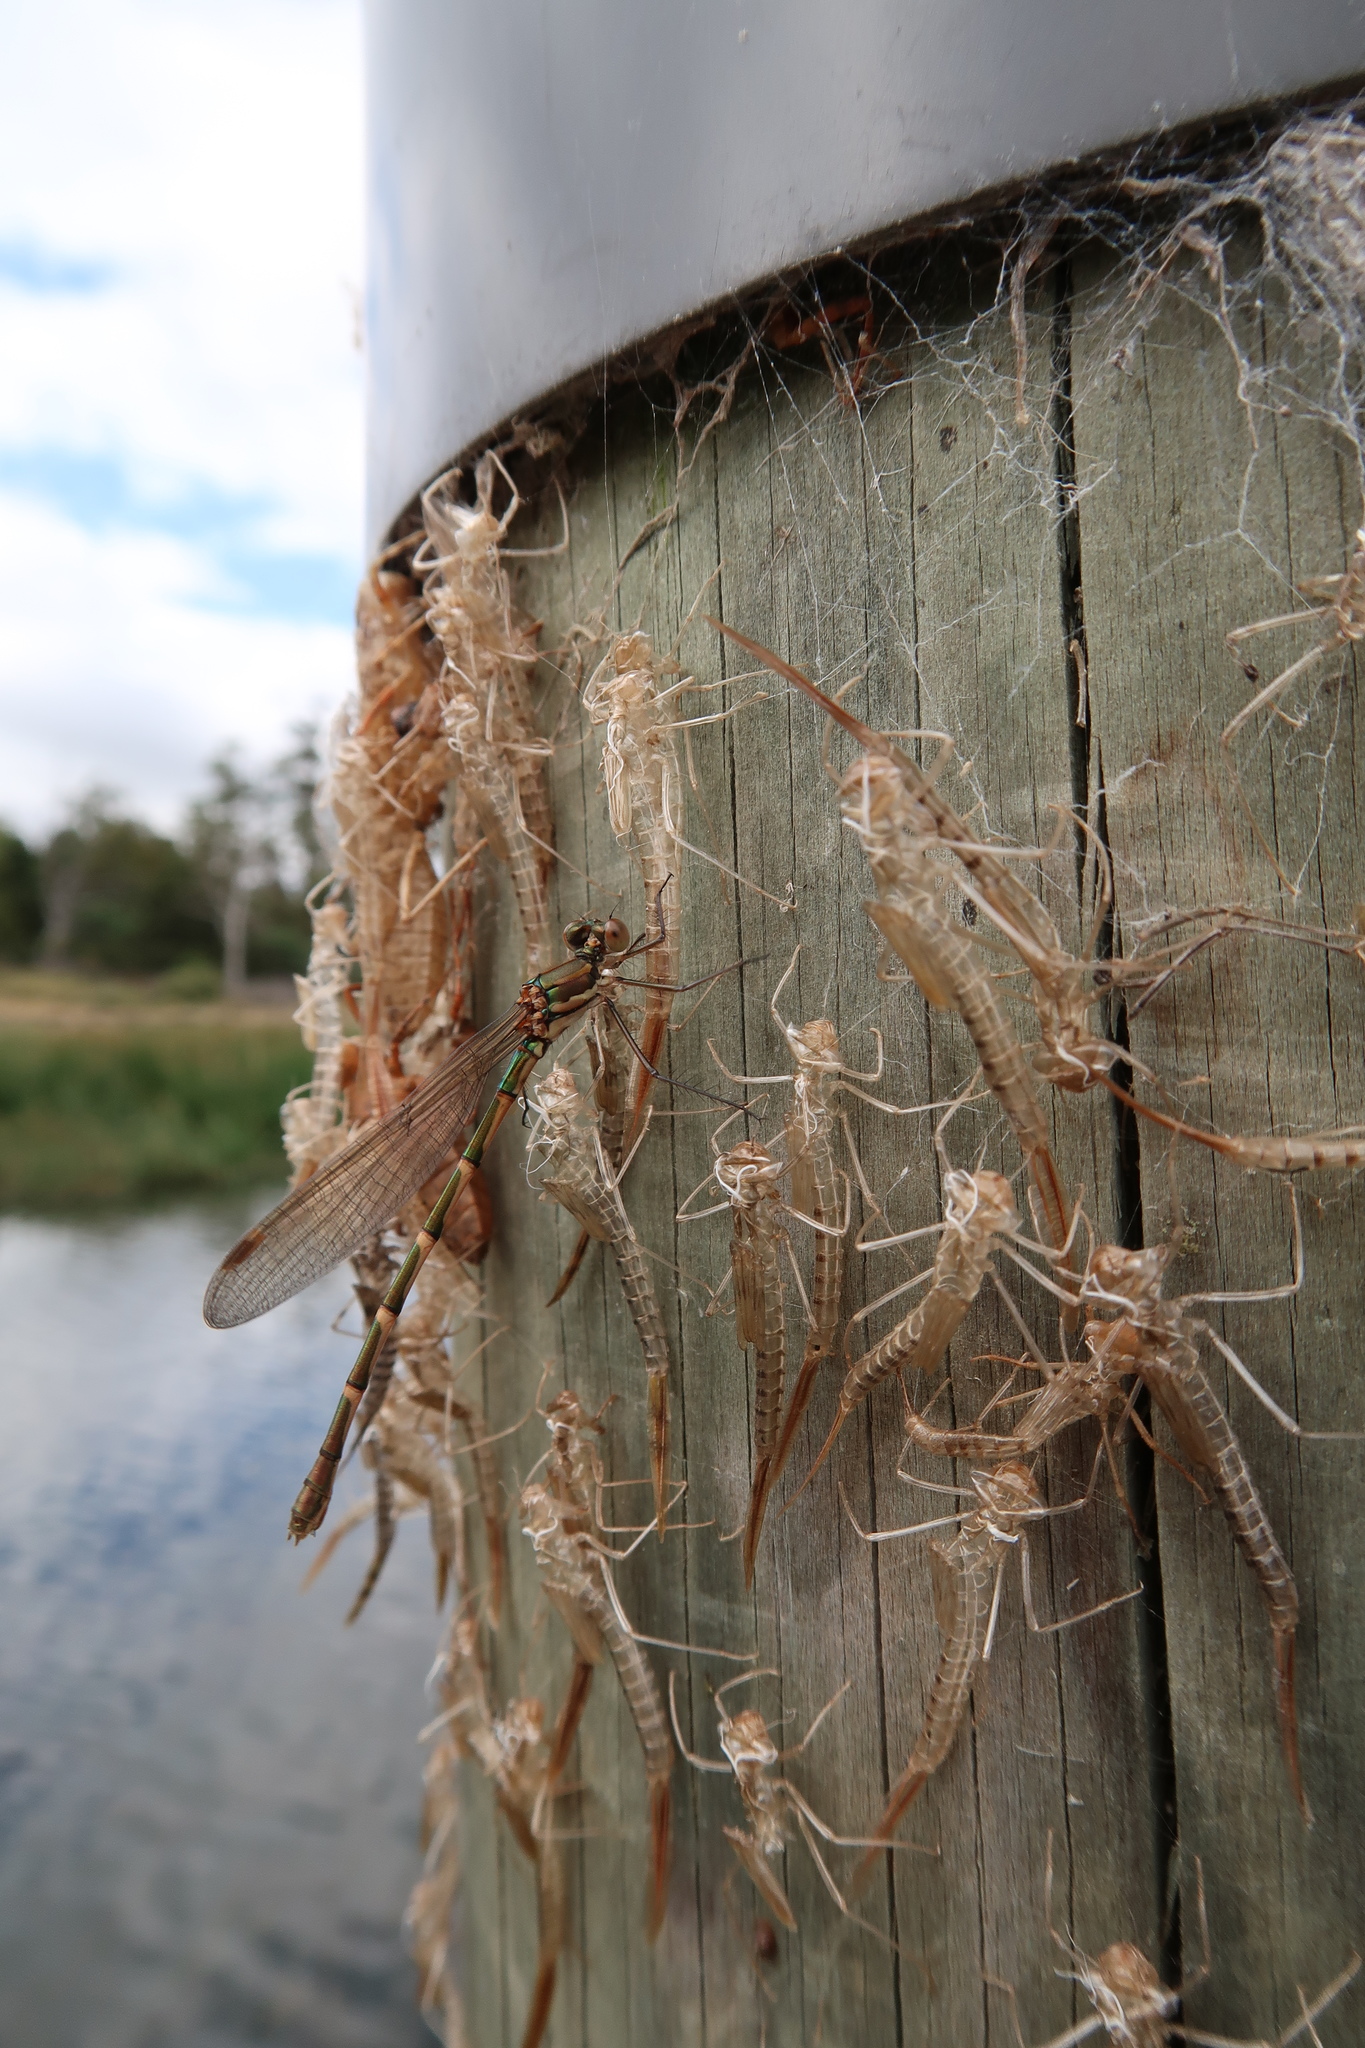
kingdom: Animalia
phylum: Arthropoda
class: Insecta
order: Odonata
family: Lestidae
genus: Austrolestes
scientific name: Austrolestes annulosus
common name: Blue ringtail
